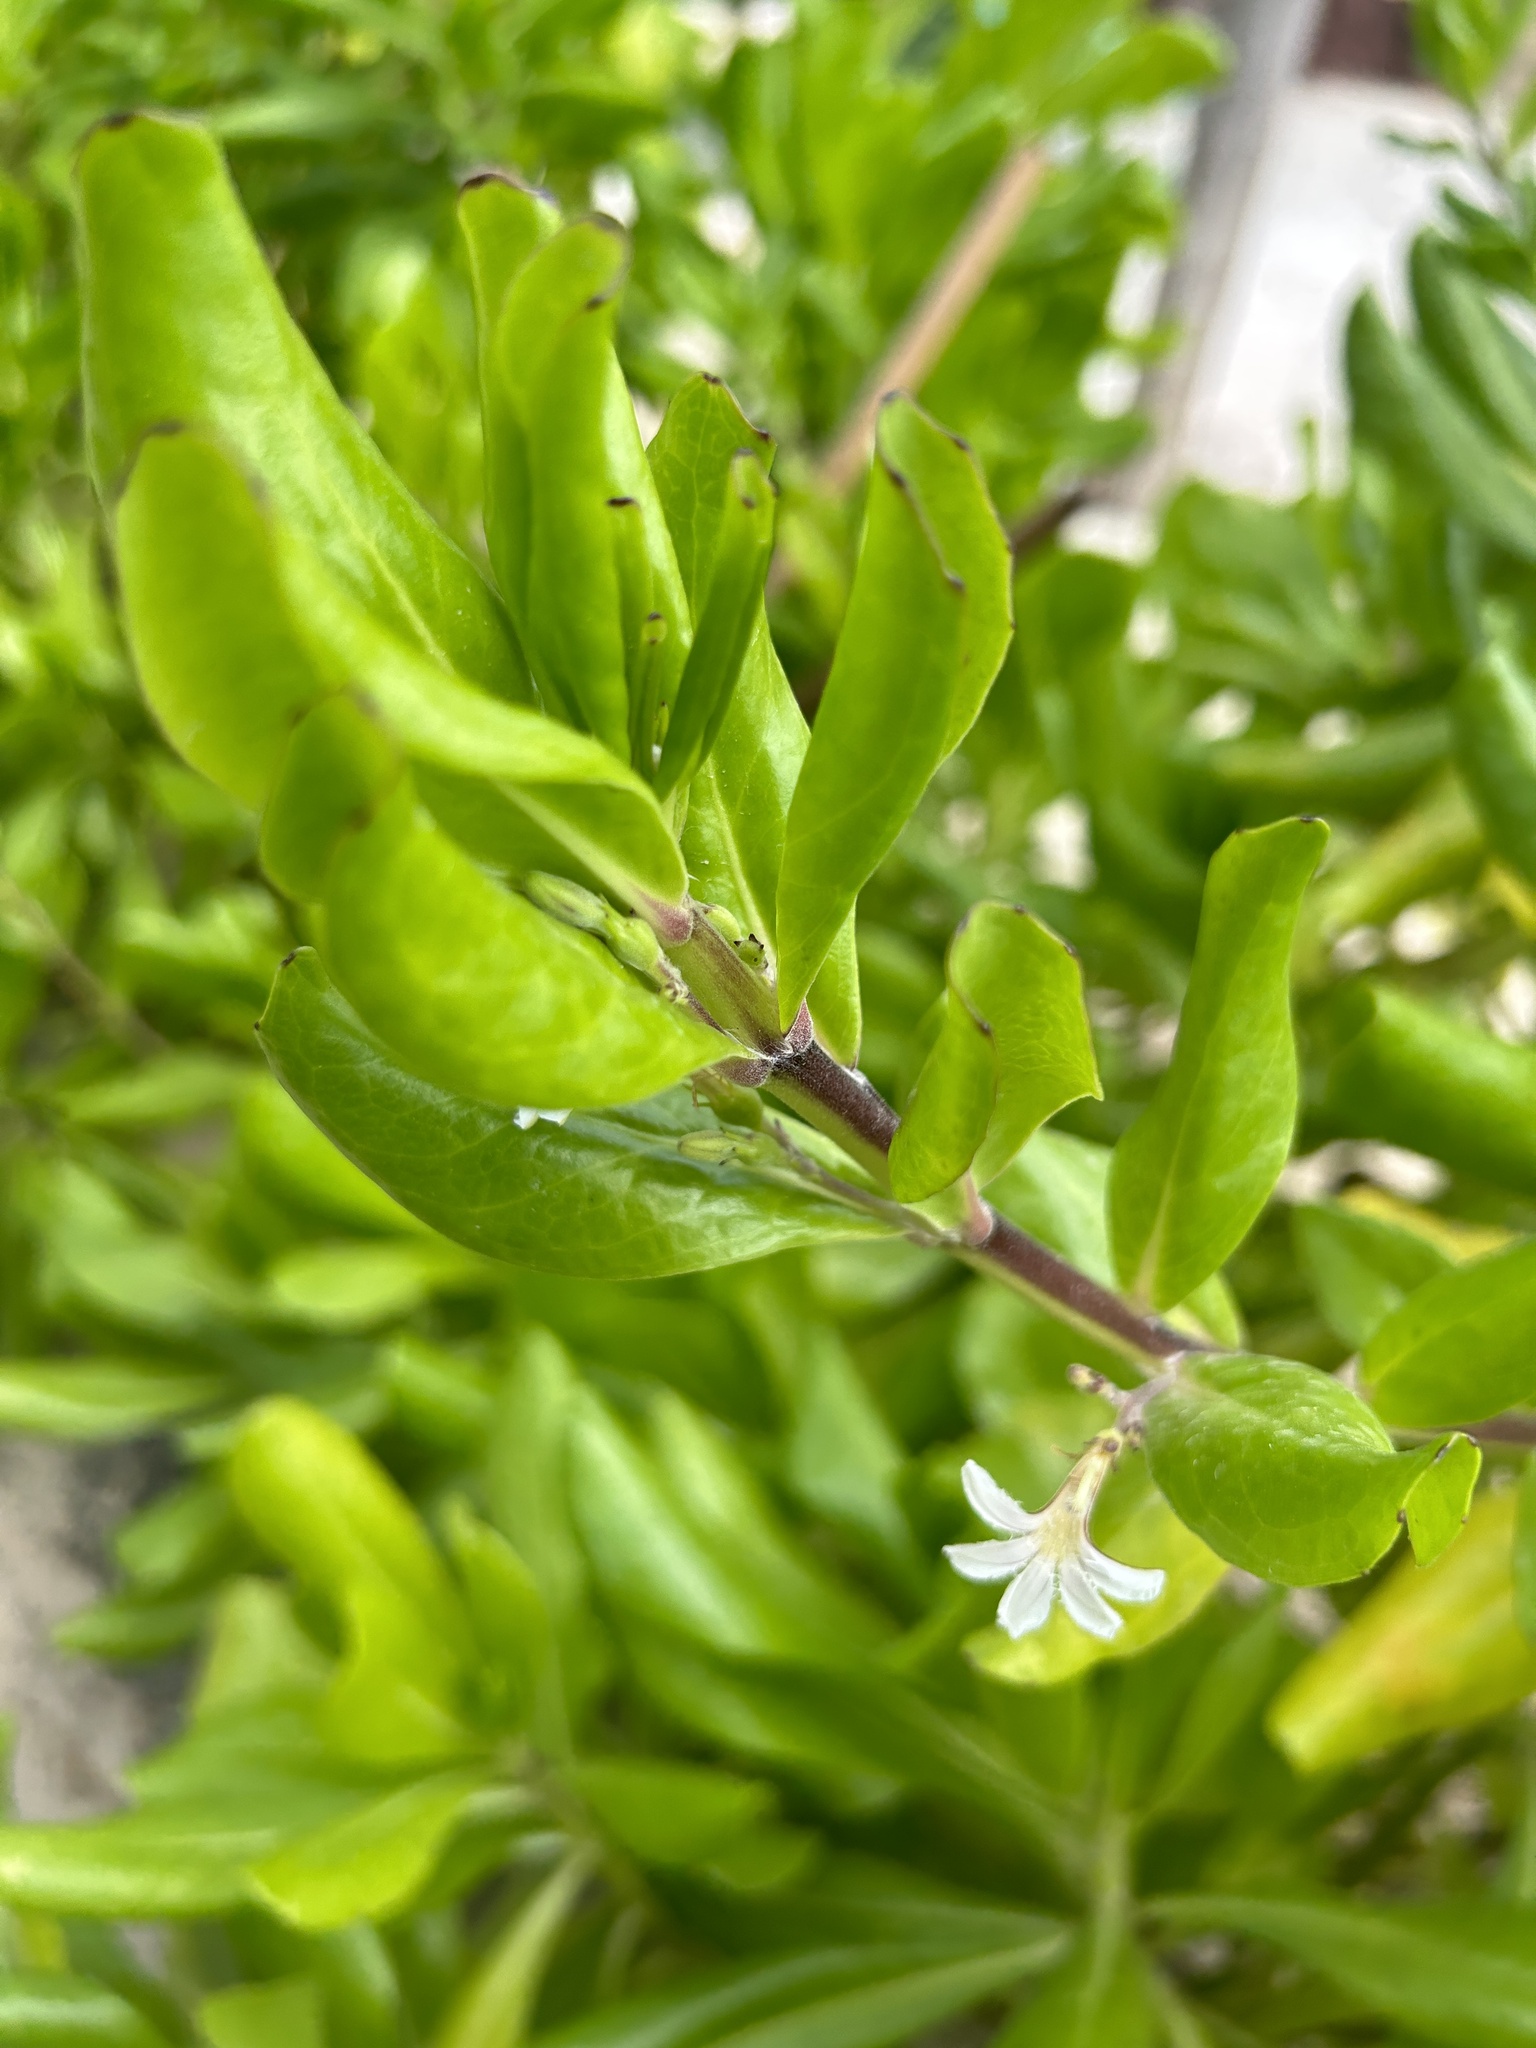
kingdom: Plantae
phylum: Tracheophyta
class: Magnoliopsida
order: Asterales
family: Goodeniaceae
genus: Scaevola
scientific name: Scaevola taccada
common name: Sea lettucetree
